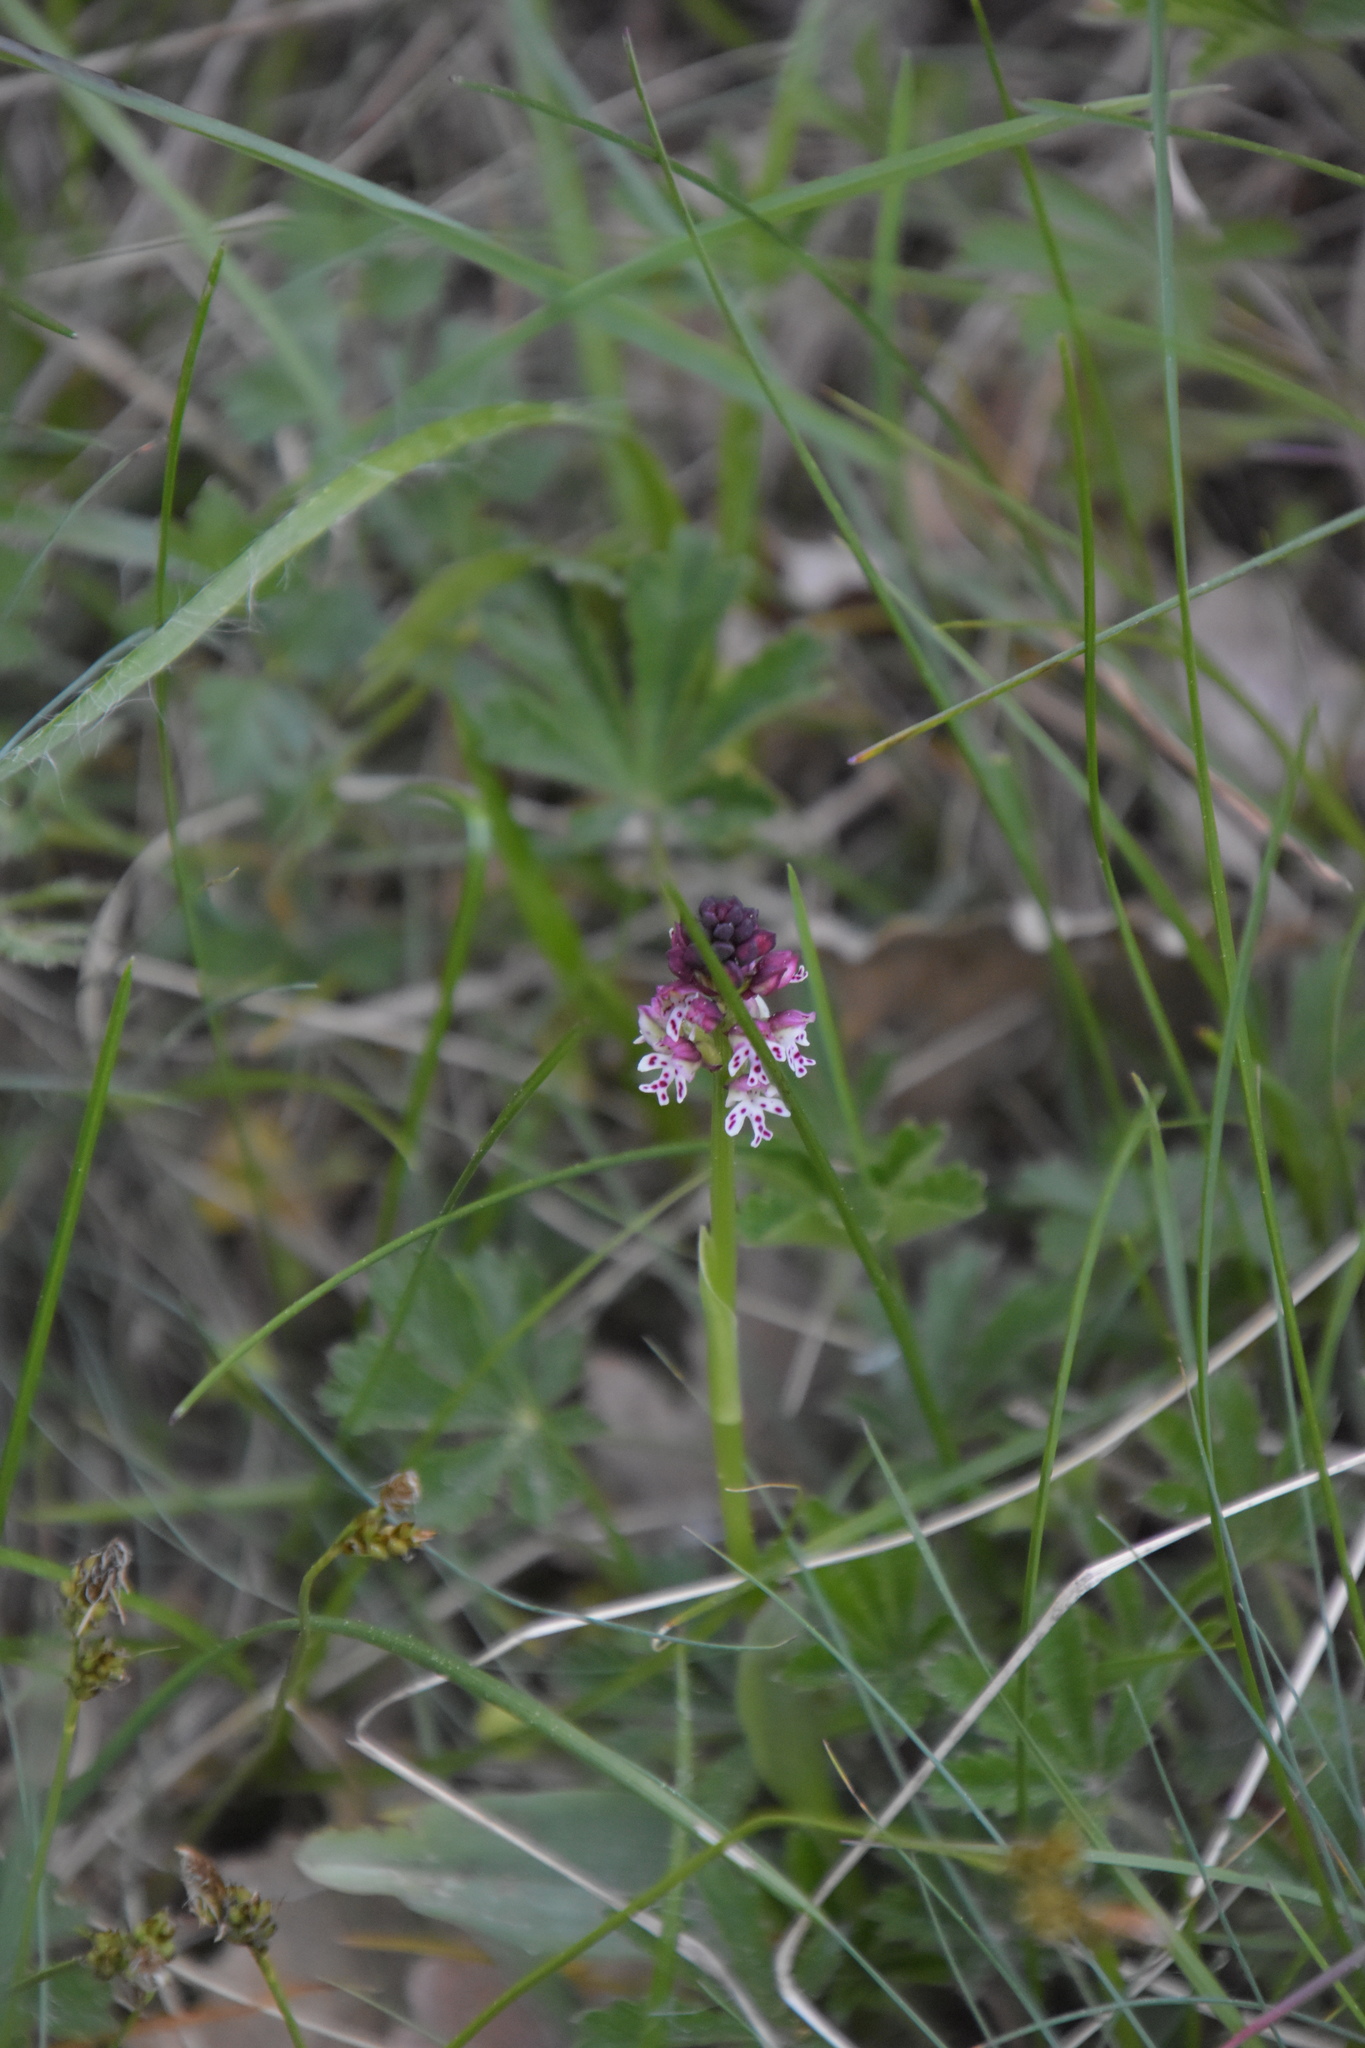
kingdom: Plantae
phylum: Tracheophyta
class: Liliopsida
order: Asparagales
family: Orchidaceae
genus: Neotinea
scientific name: Neotinea ustulata
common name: Burnt orchid
